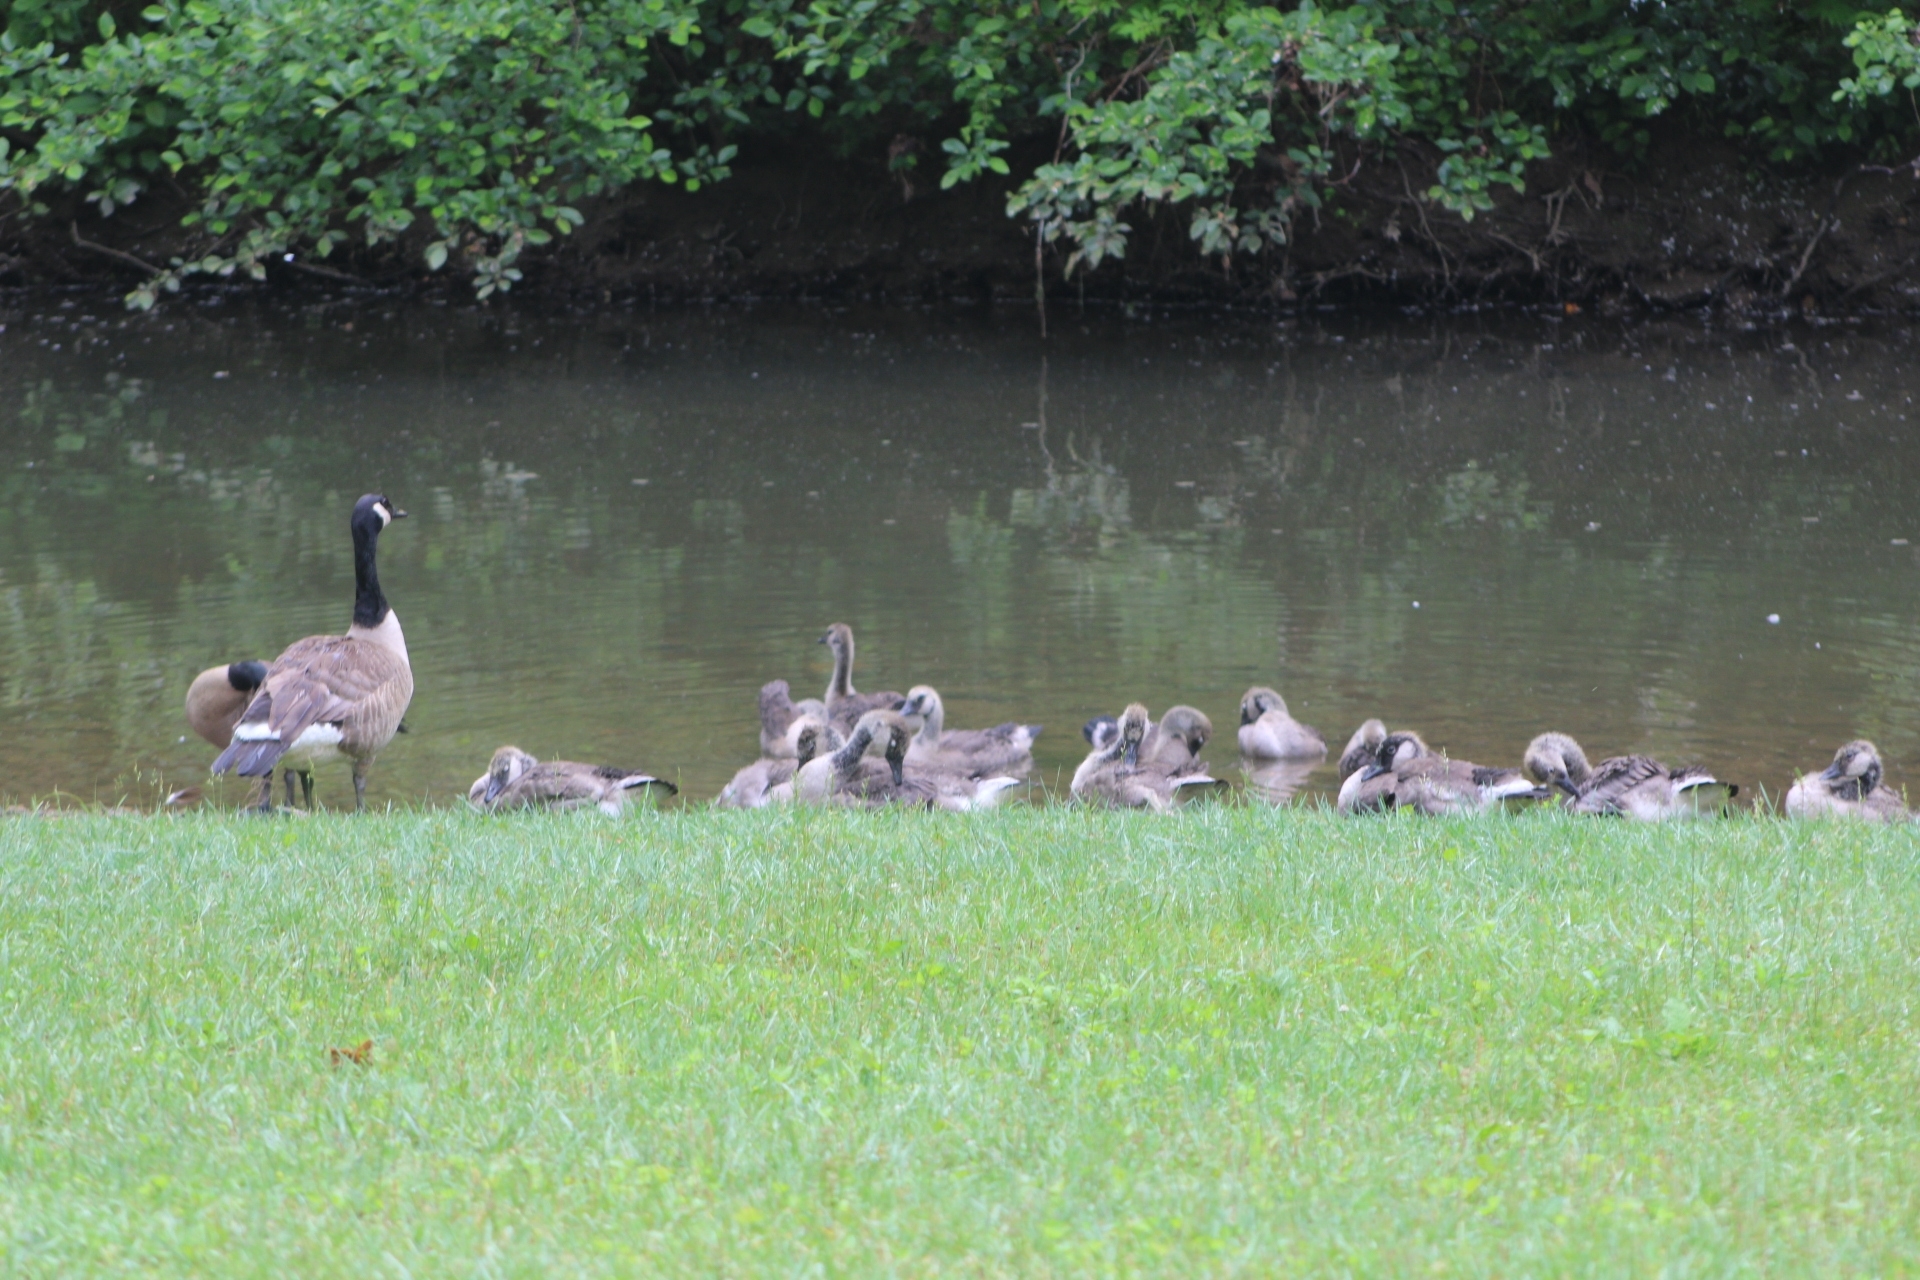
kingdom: Animalia
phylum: Chordata
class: Aves
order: Anseriformes
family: Anatidae
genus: Branta
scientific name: Branta canadensis
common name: Canada goose
